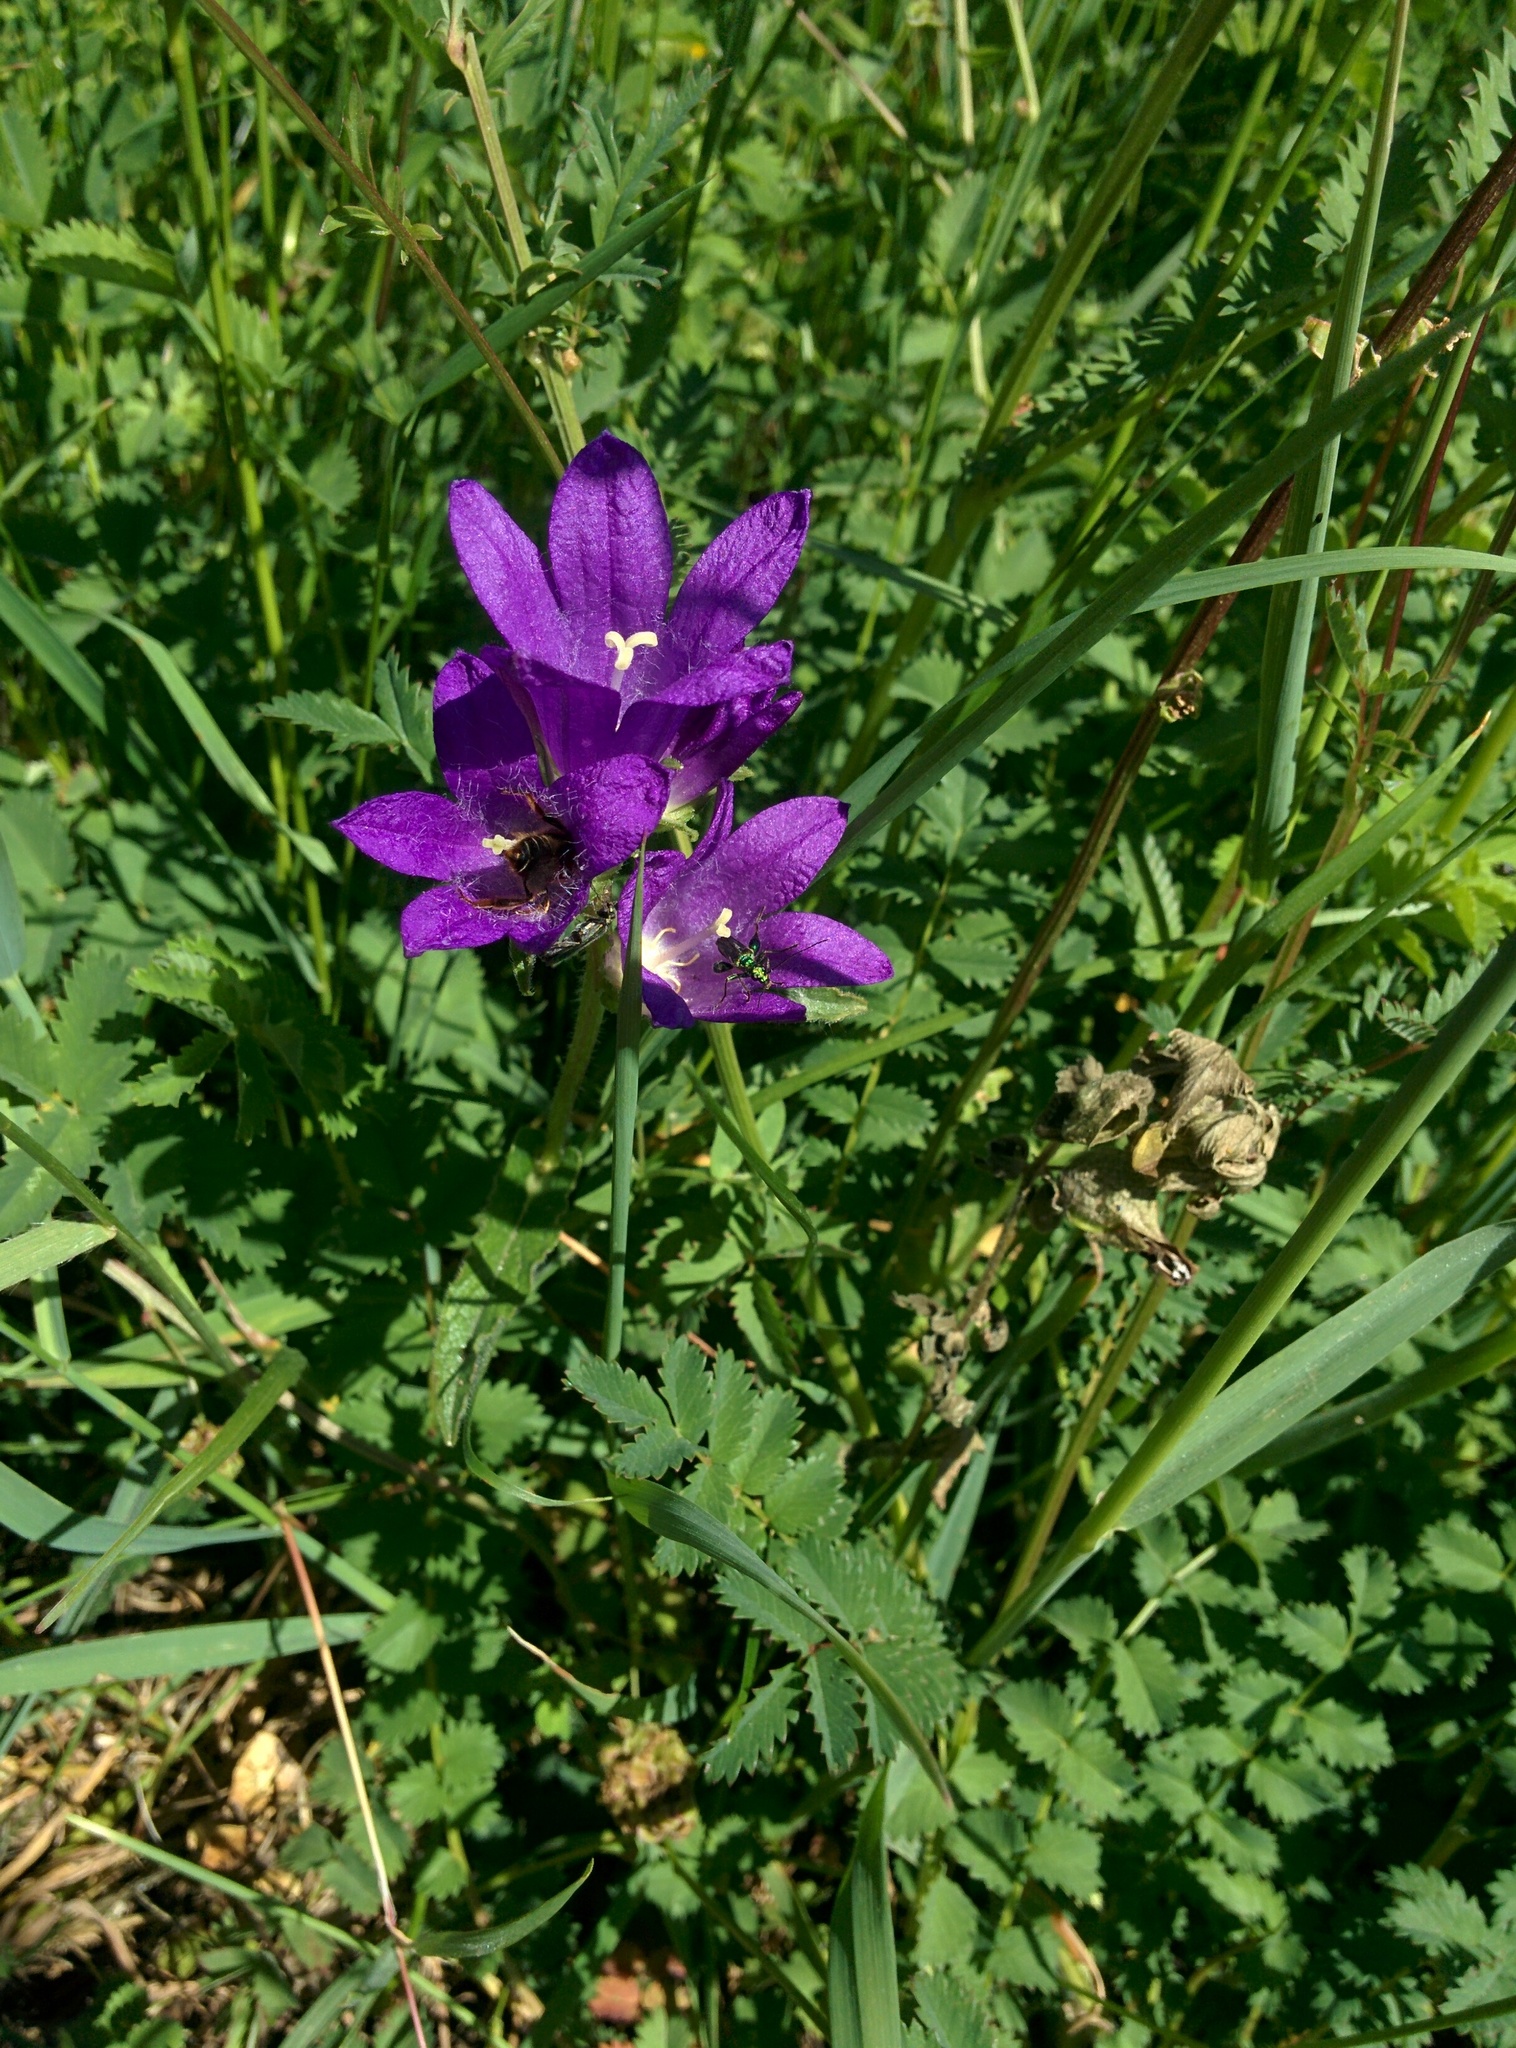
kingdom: Plantae
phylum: Tracheophyta
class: Magnoliopsida
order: Asterales
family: Campanulaceae
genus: Campanula
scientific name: Campanula glomerata
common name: Clustered bellflower
